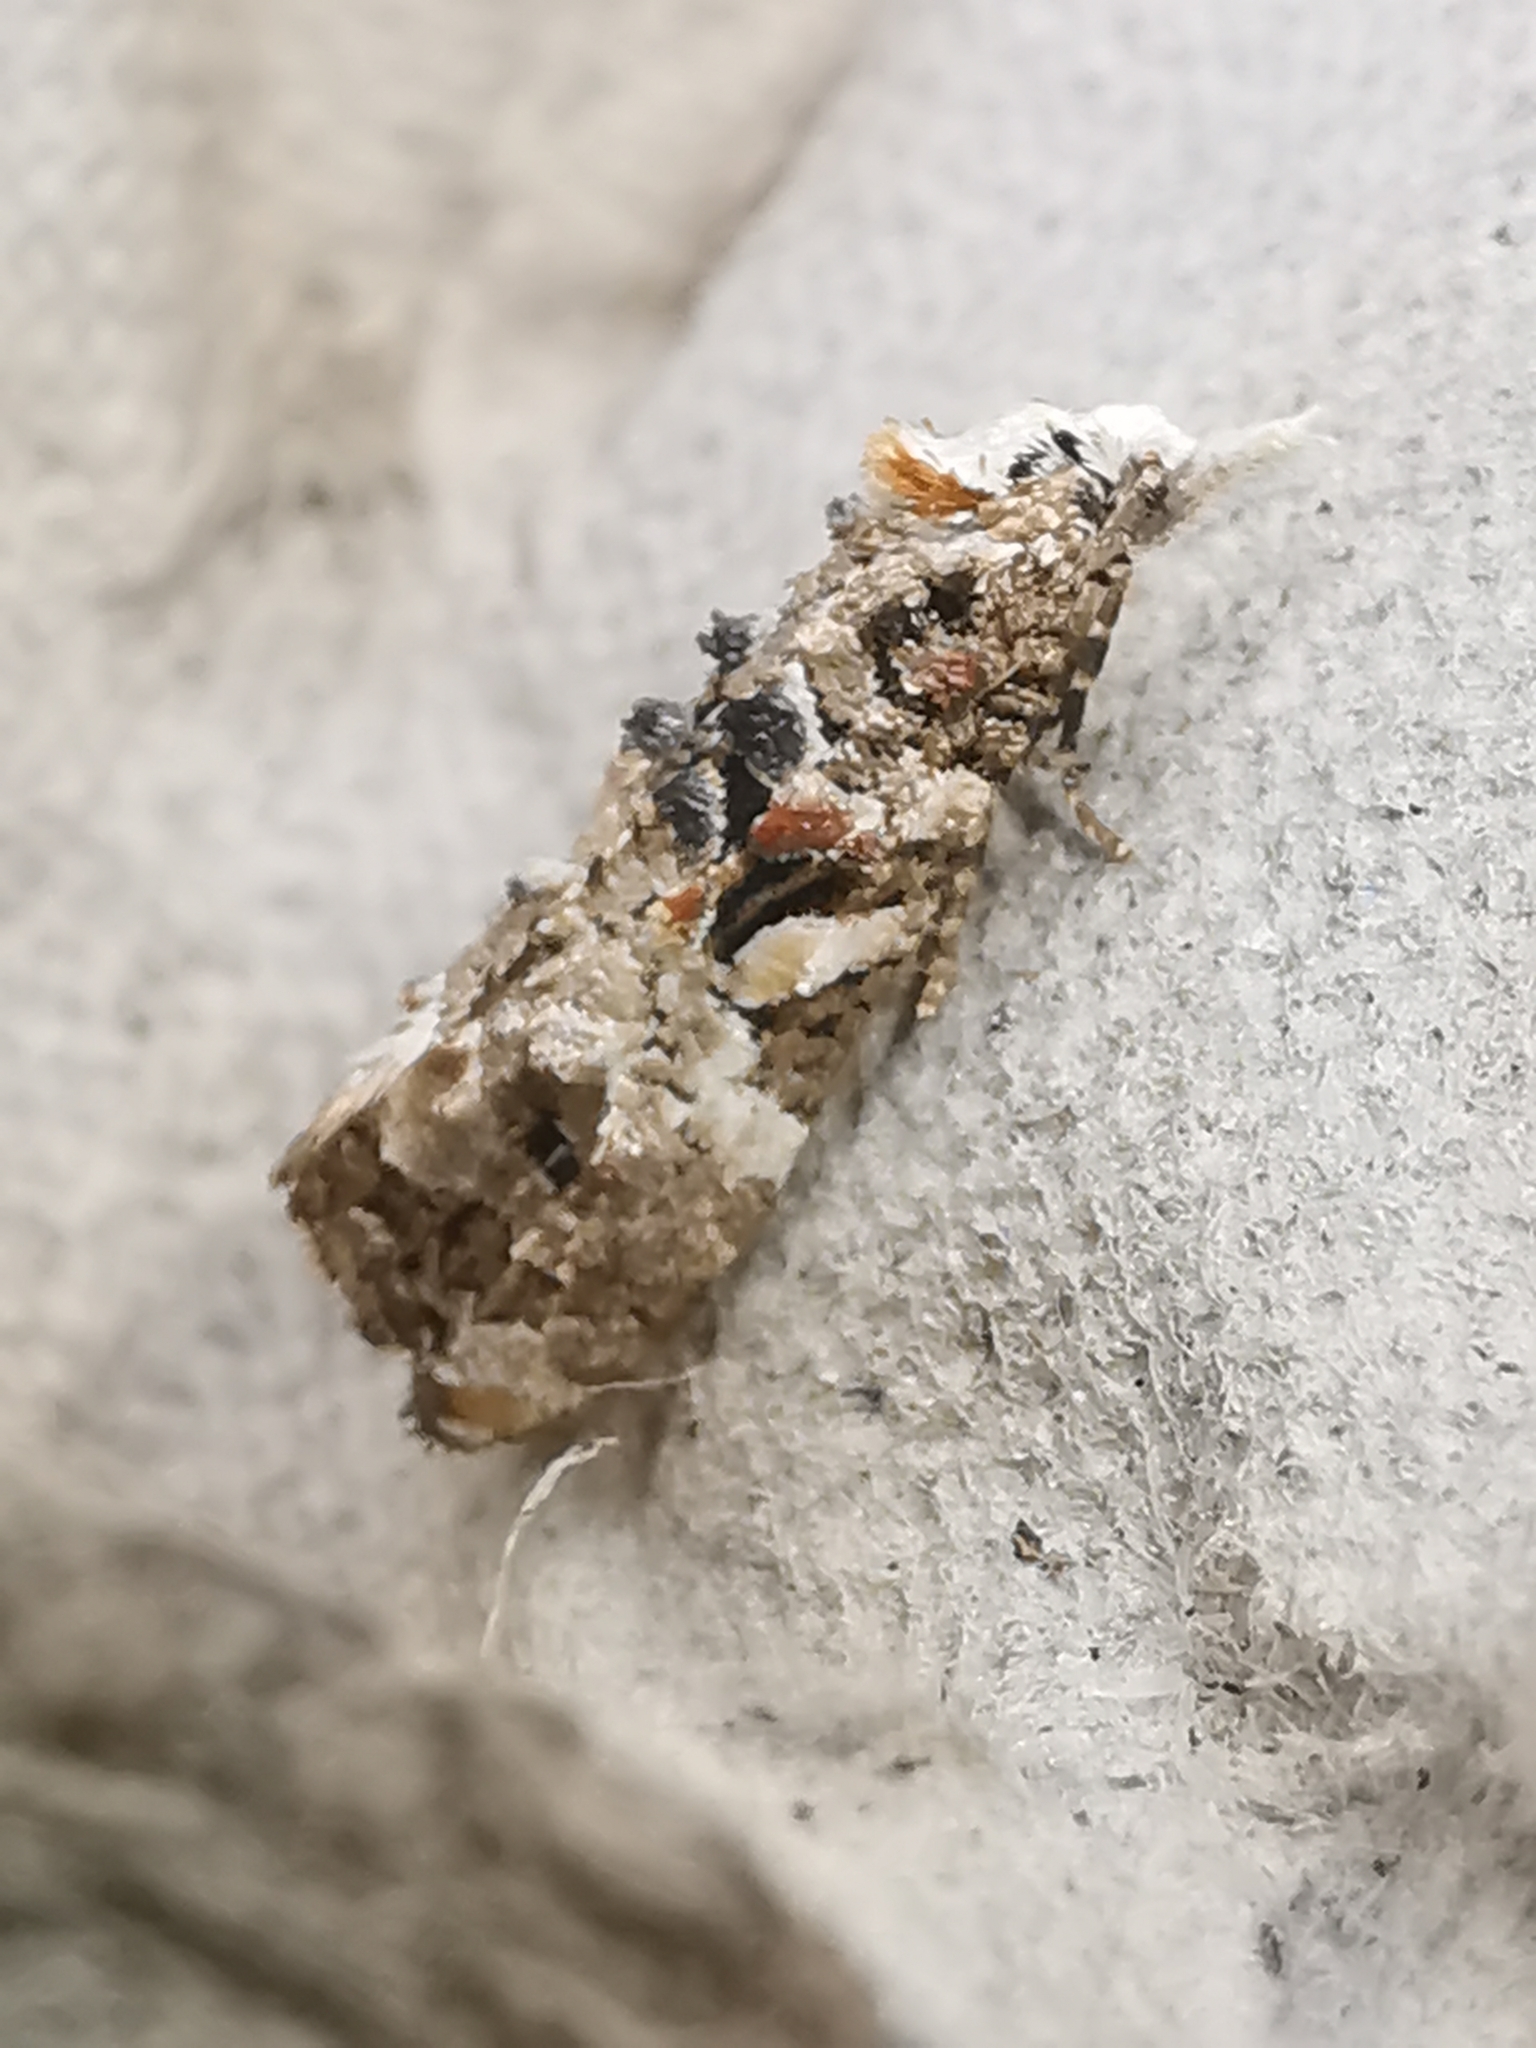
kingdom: Animalia
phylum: Arthropoda
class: Insecta
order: Lepidoptera
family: Tortricidae
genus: Phtheochroa
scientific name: Phtheochroa rugosana
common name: Rough-winged conch
